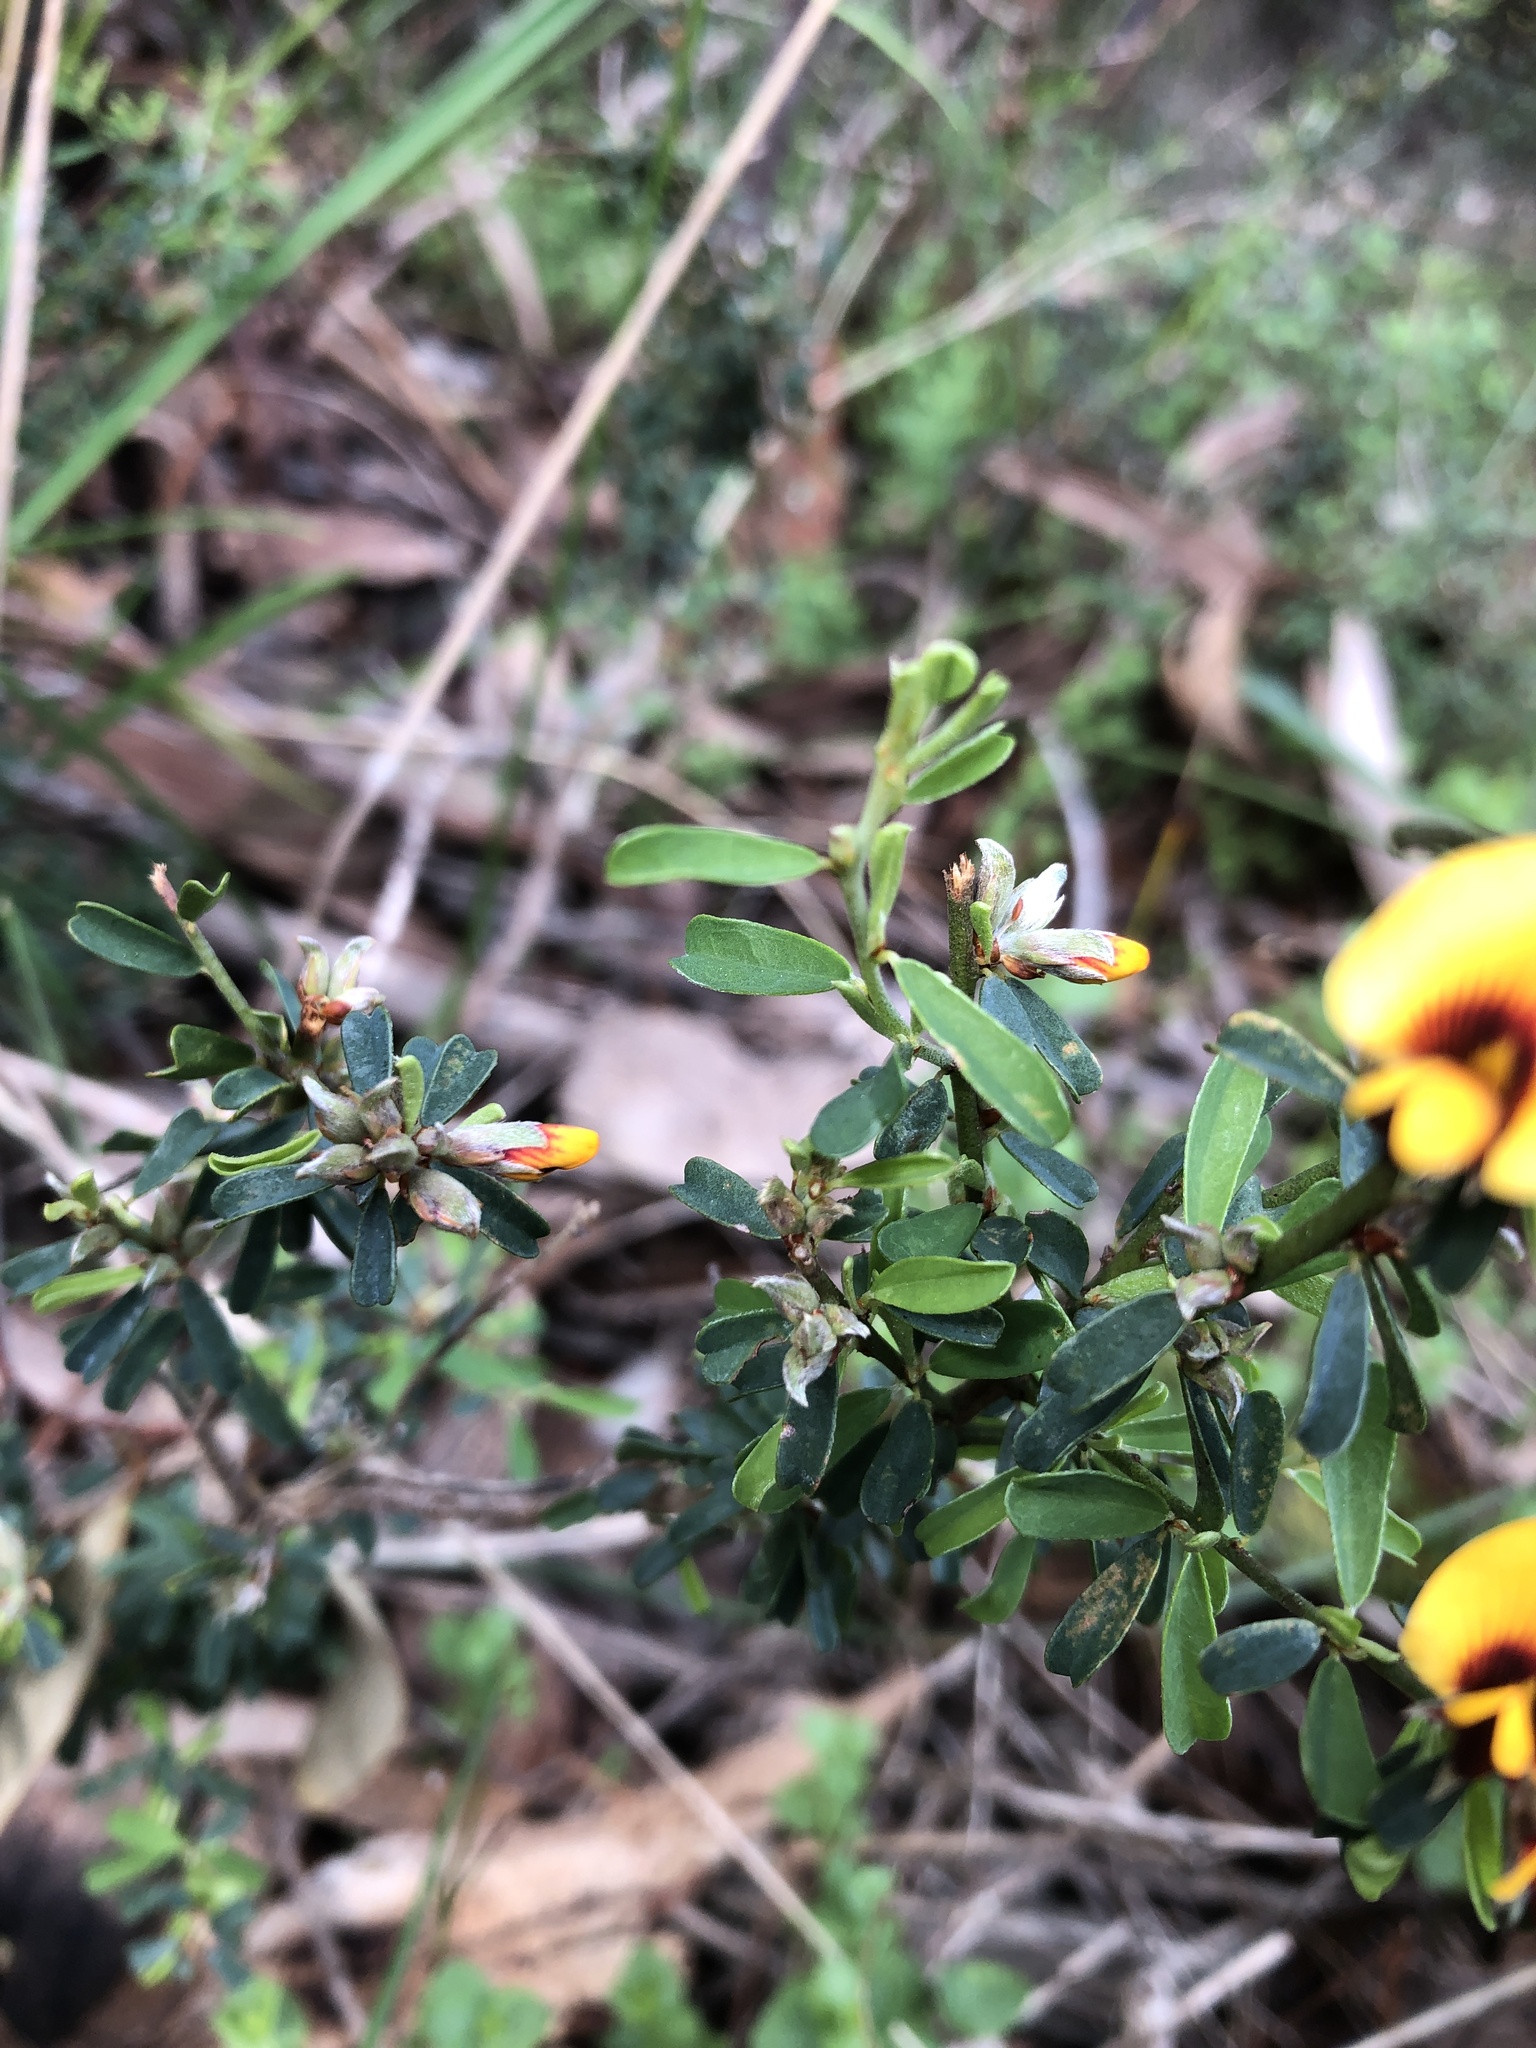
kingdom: Plantae
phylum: Tracheophyta
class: Magnoliopsida
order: Fabales
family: Fabaceae
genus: Pultenaea
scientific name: Pultenaea largiflorens
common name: Twiggy bush-pea
